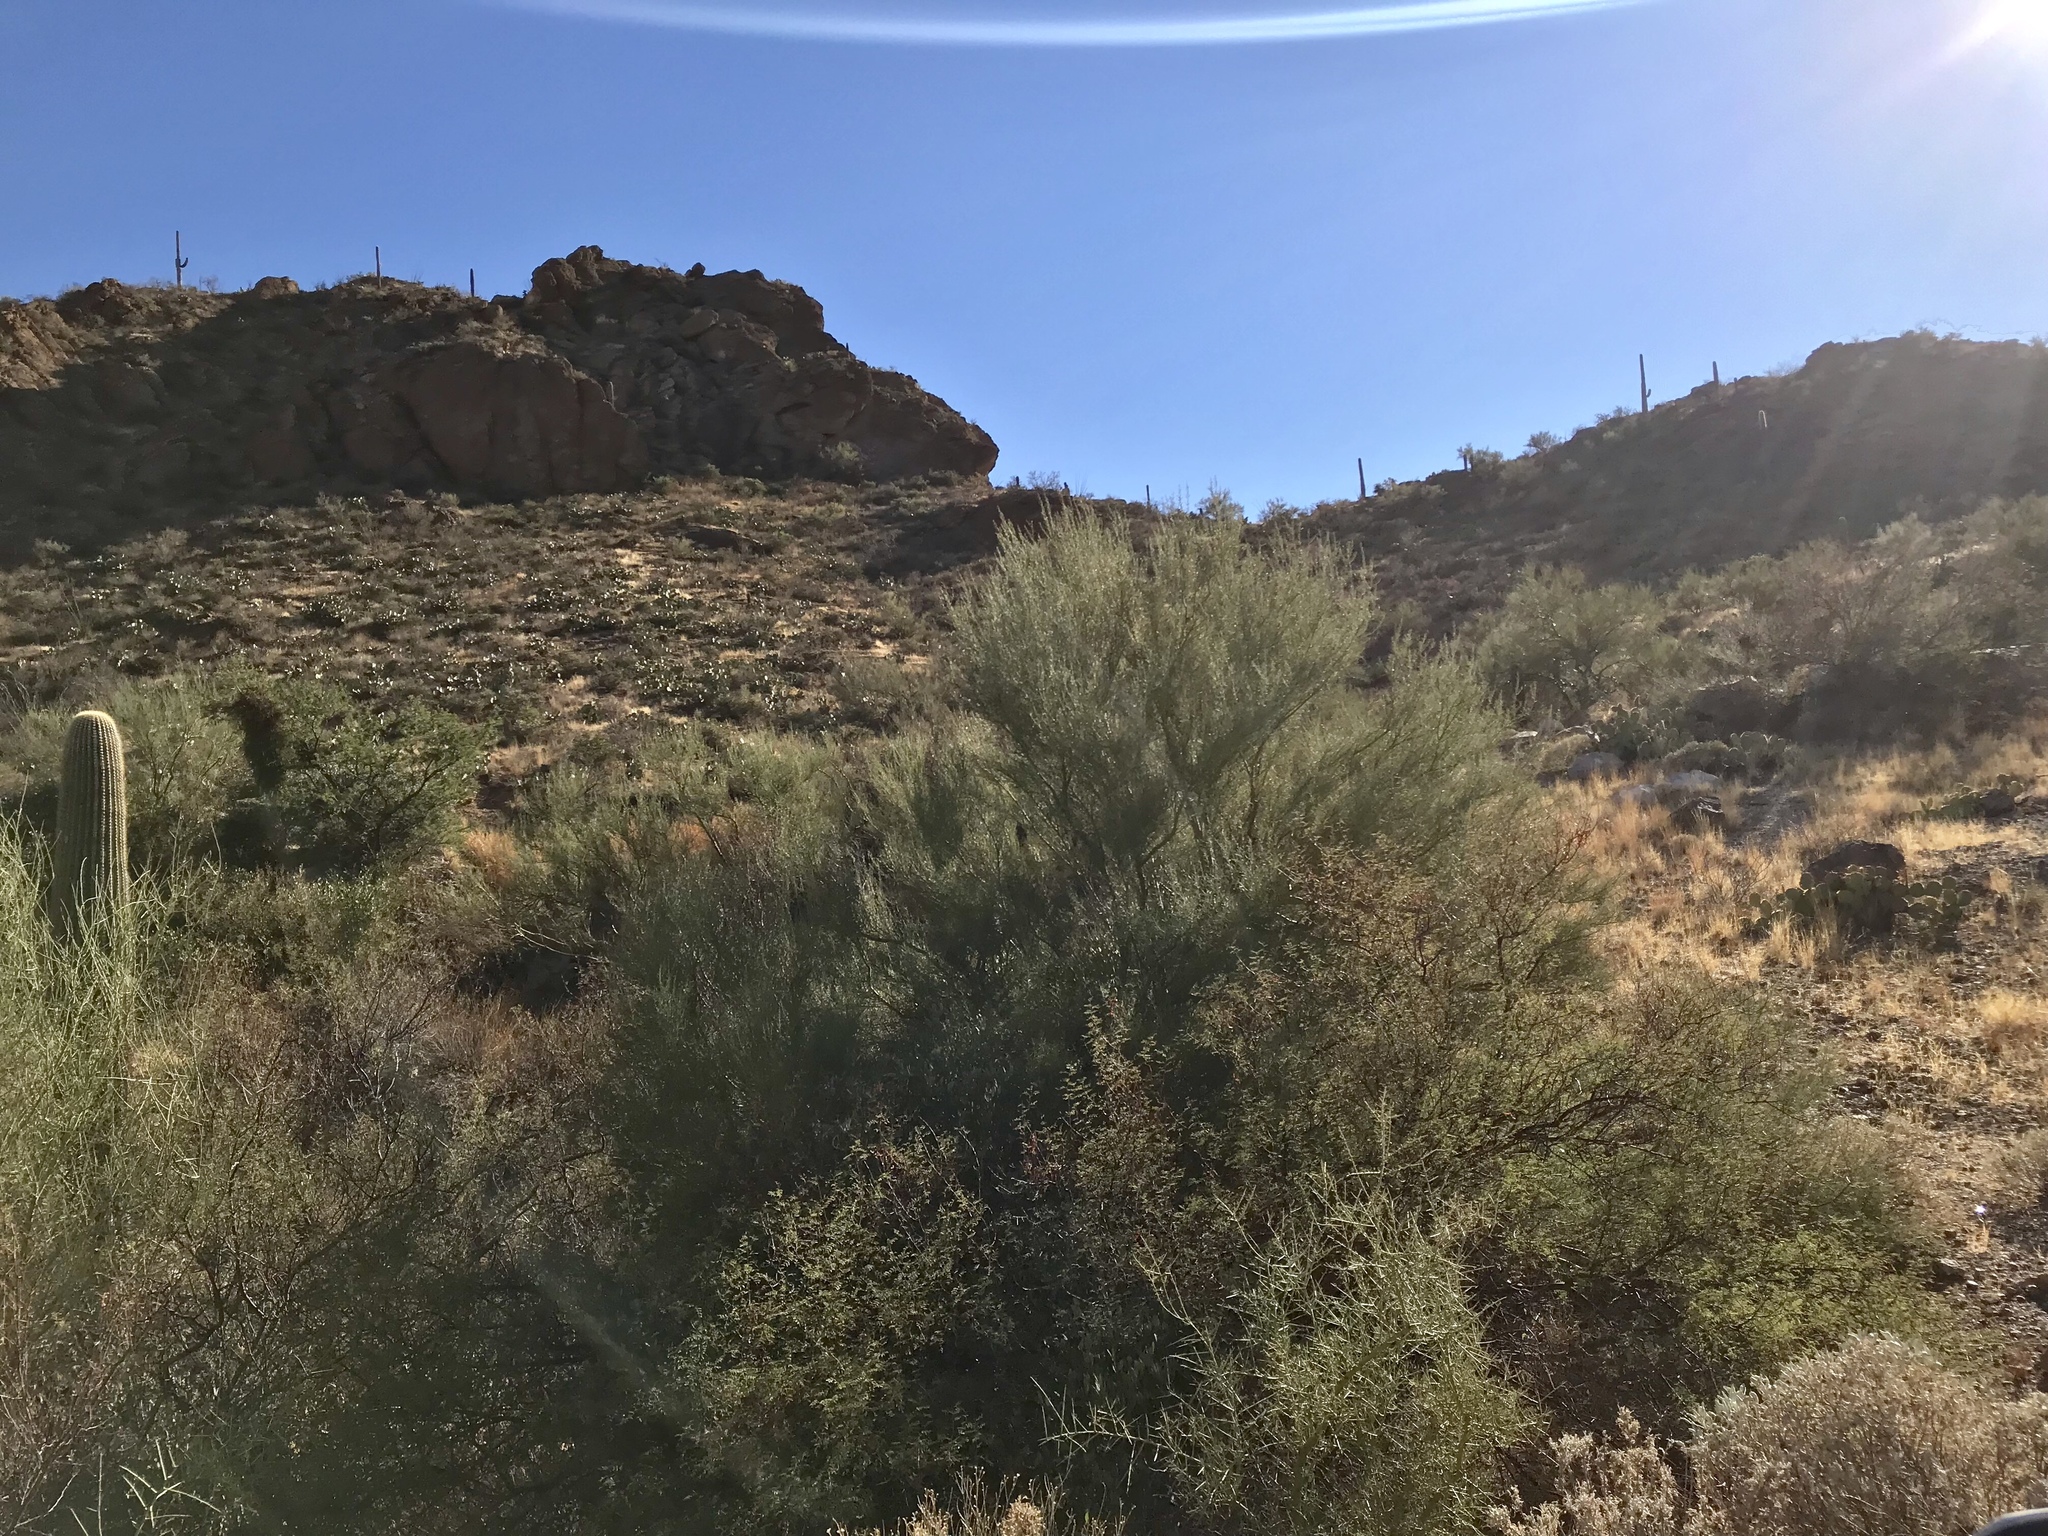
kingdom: Plantae
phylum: Tracheophyta
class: Magnoliopsida
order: Fabales
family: Fabaceae
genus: Parkinsonia
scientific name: Parkinsonia microphylla
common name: Yellow paloverde
